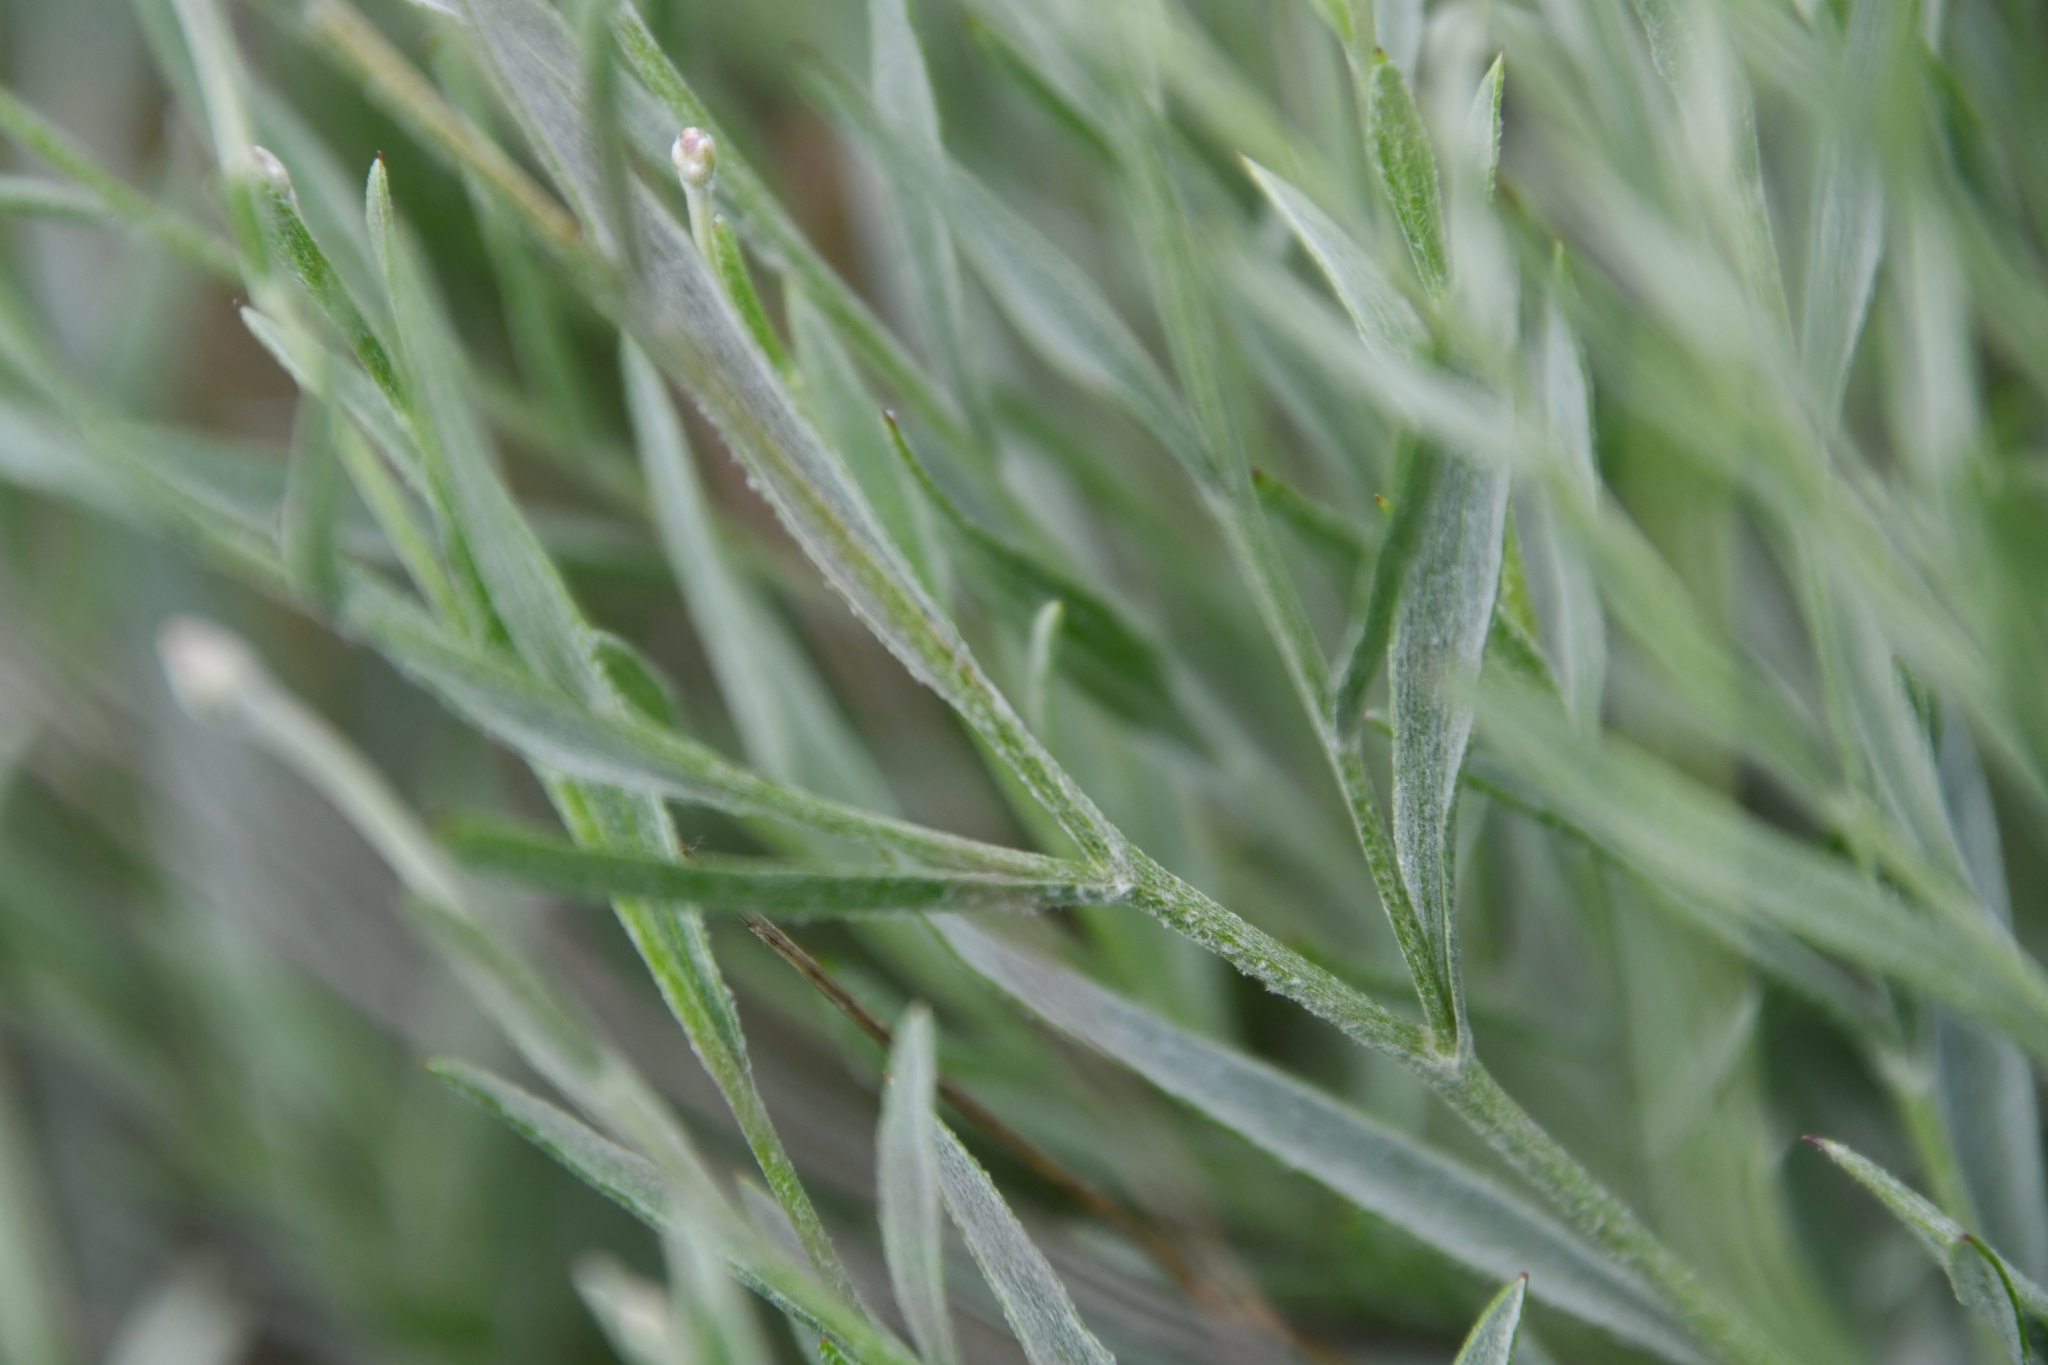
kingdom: Plantae
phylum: Tracheophyta
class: Magnoliopsida
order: Asterales
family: Asteraceae
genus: Psephellus
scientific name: Psephellus trinervius
